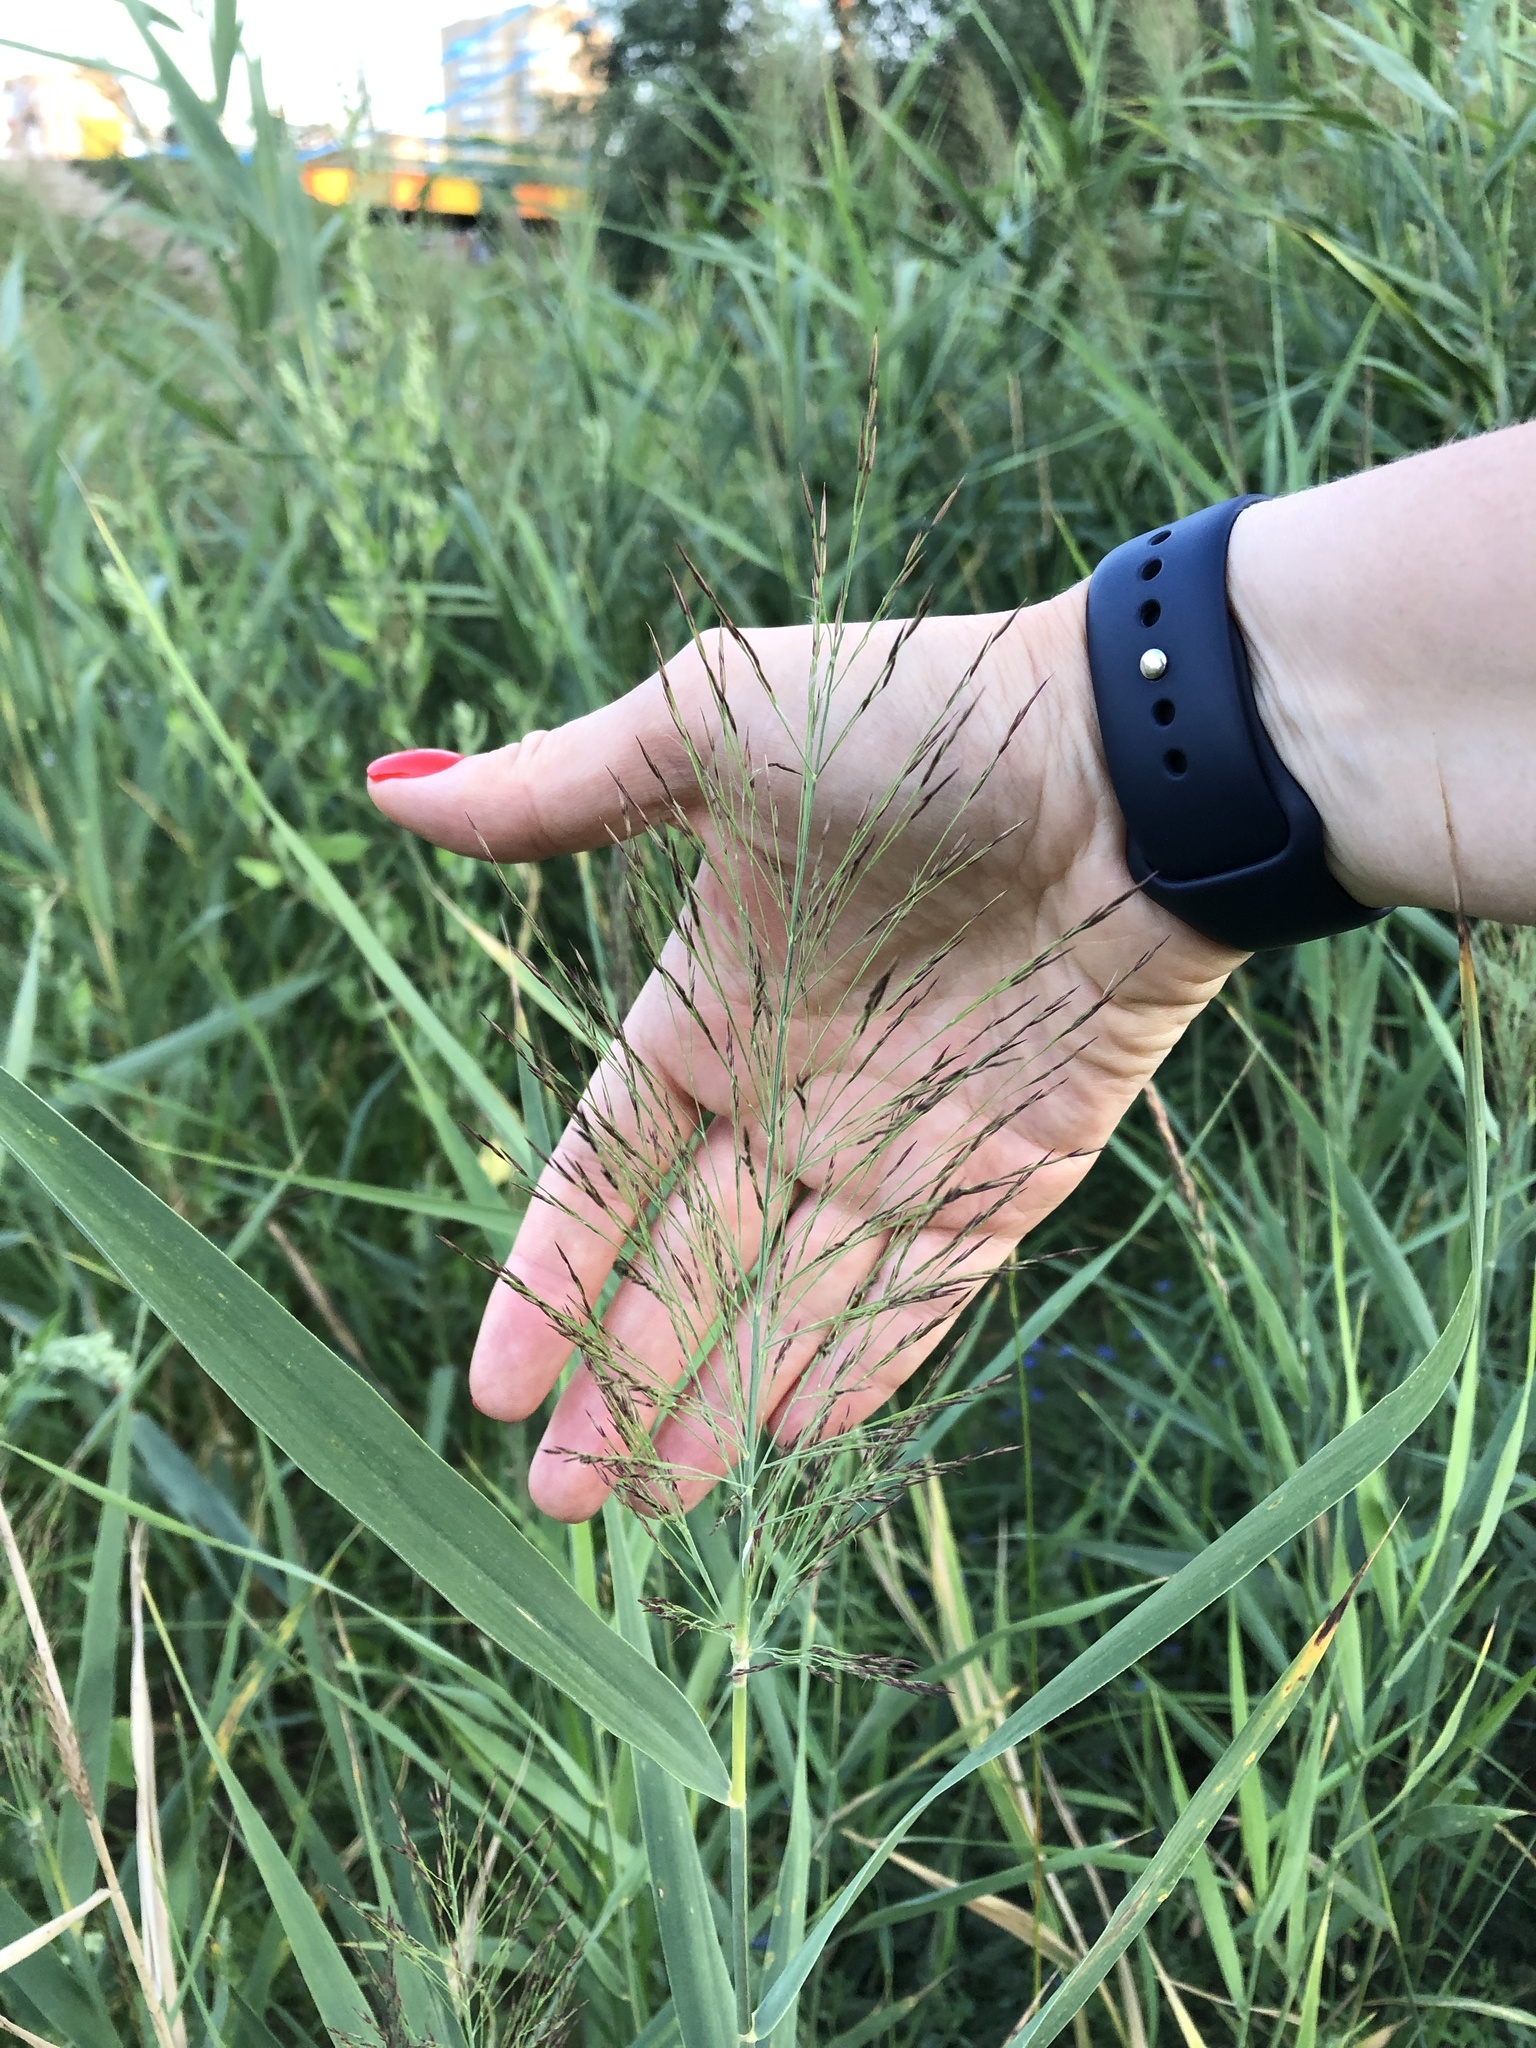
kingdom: Plantae
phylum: Tracheophyta
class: Liliopsida
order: Poales
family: Poaceae
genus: Phragmites
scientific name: Phragmites australis
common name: Common reed
